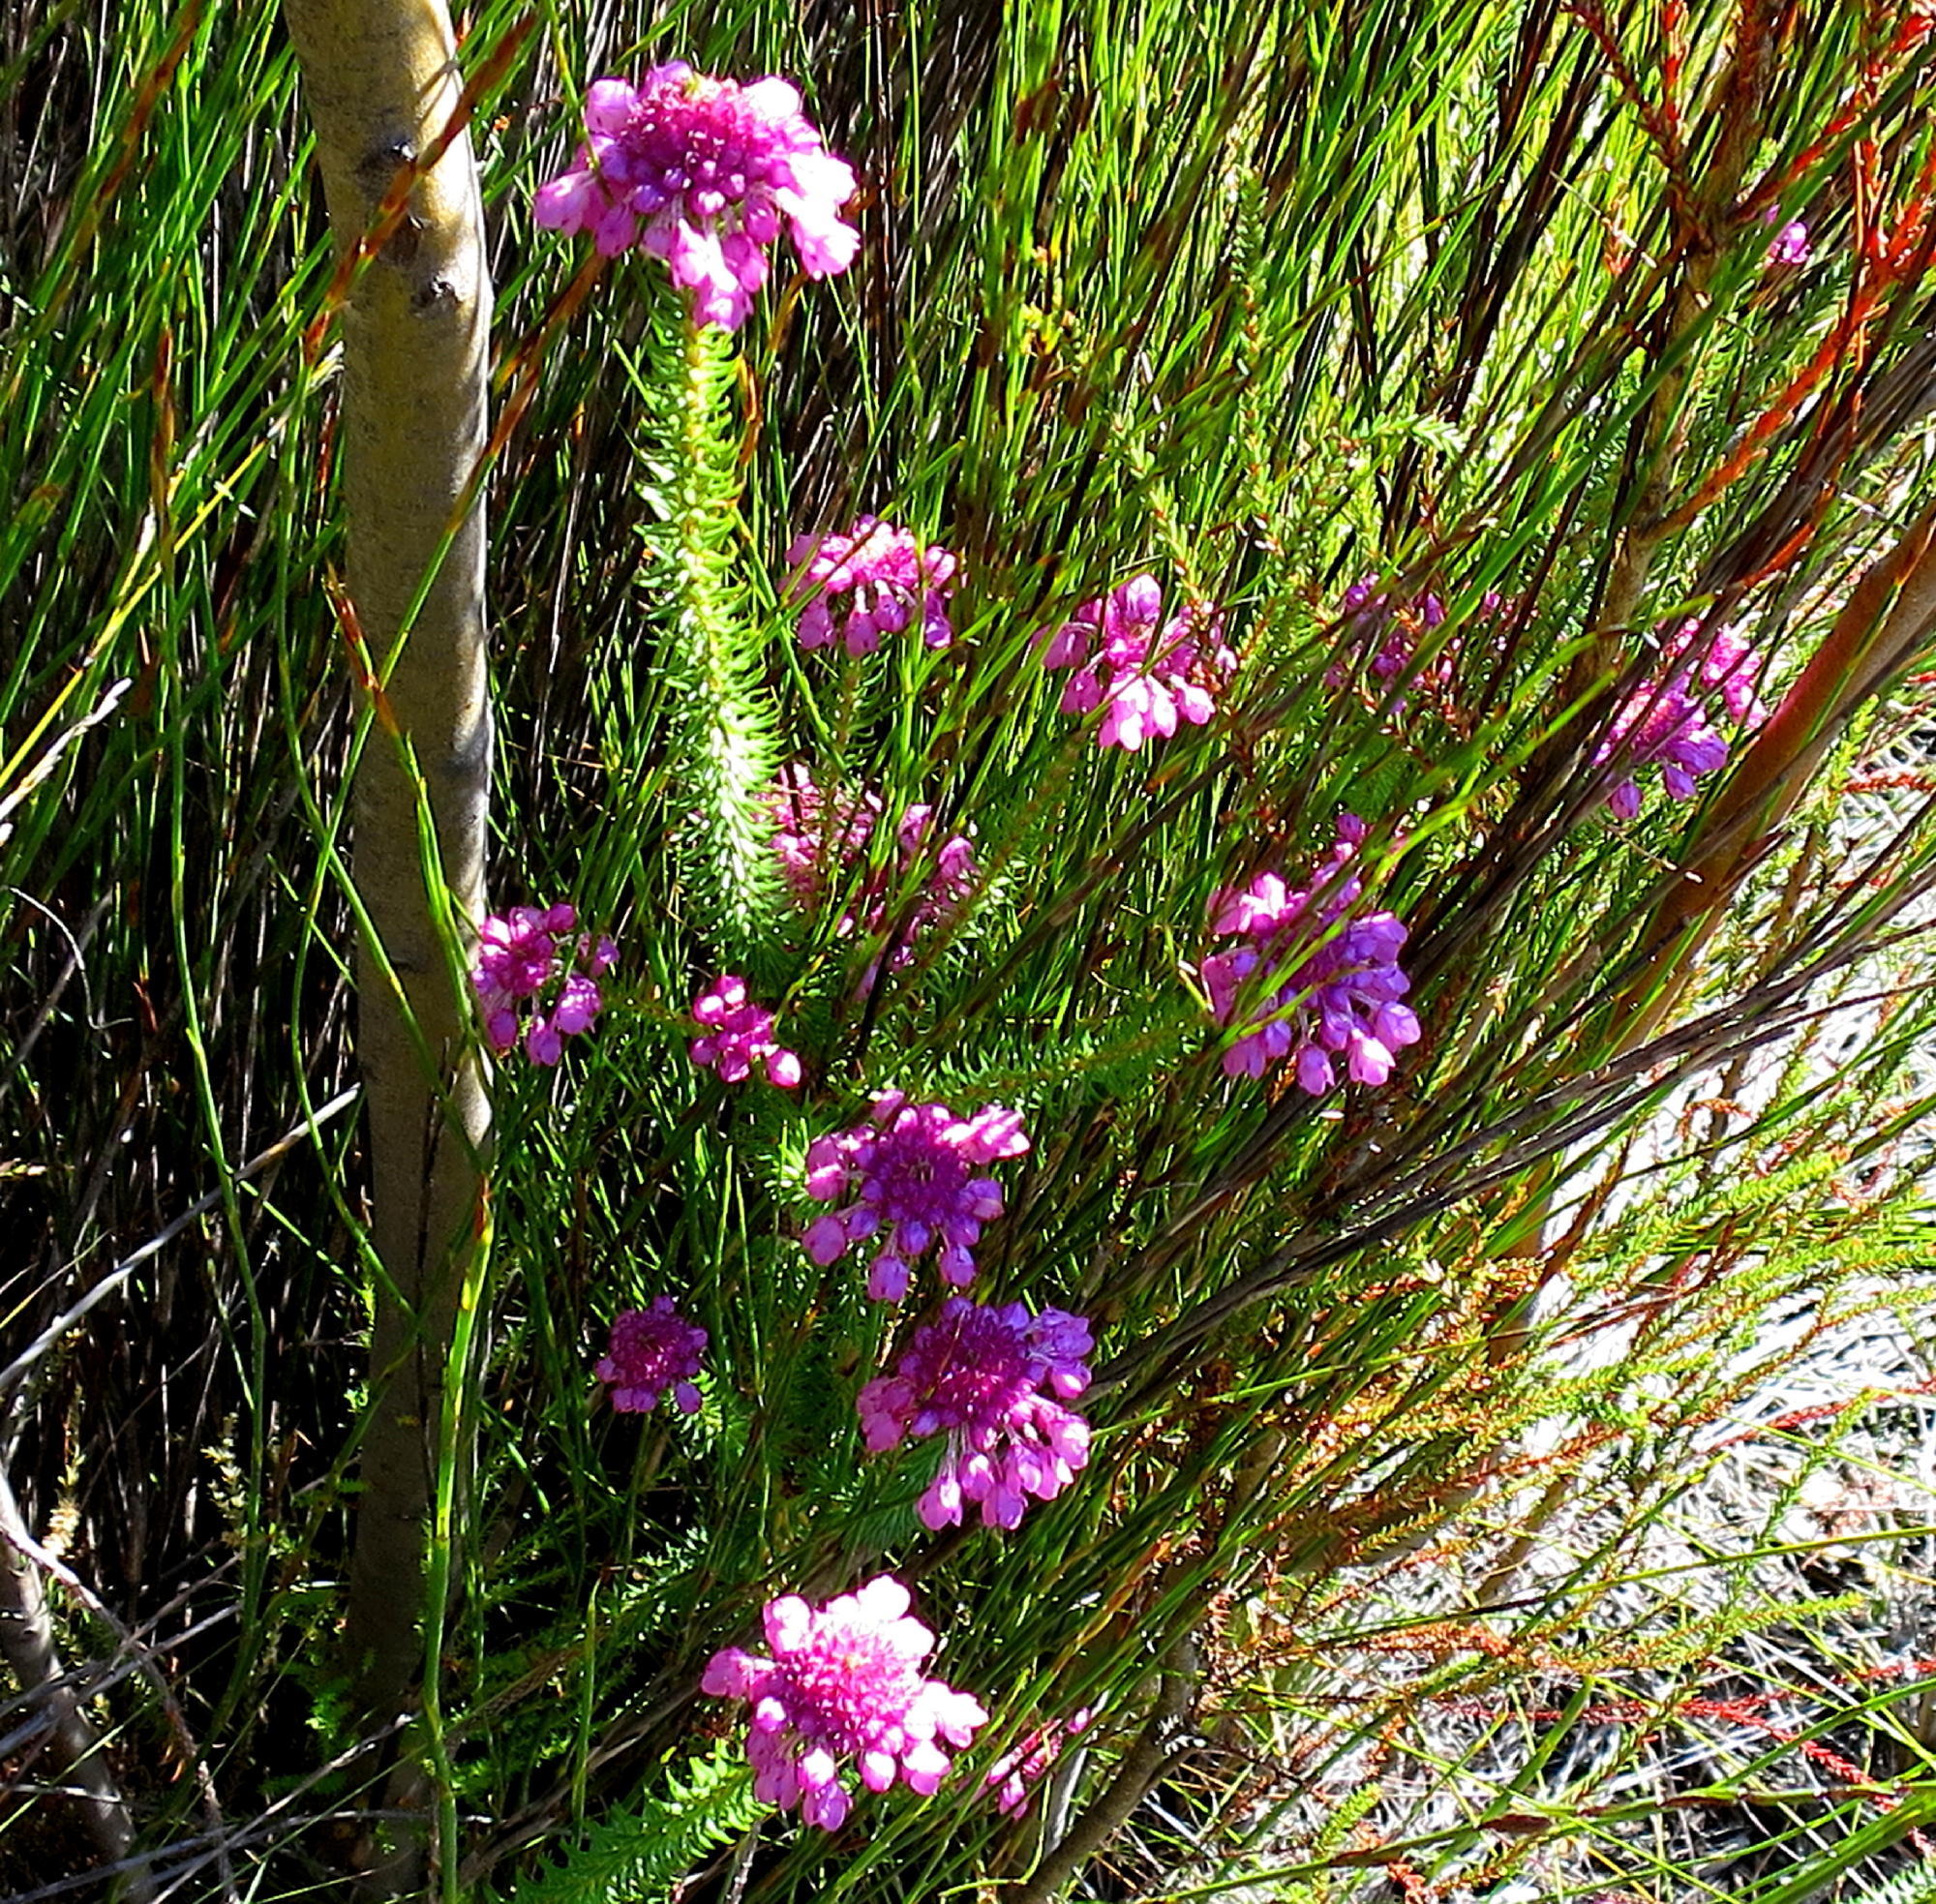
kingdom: Plantae
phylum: Tracheophyta
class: Magnoliopsida
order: Ericales
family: Ericaceae
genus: Erica
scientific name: Erica cubica
